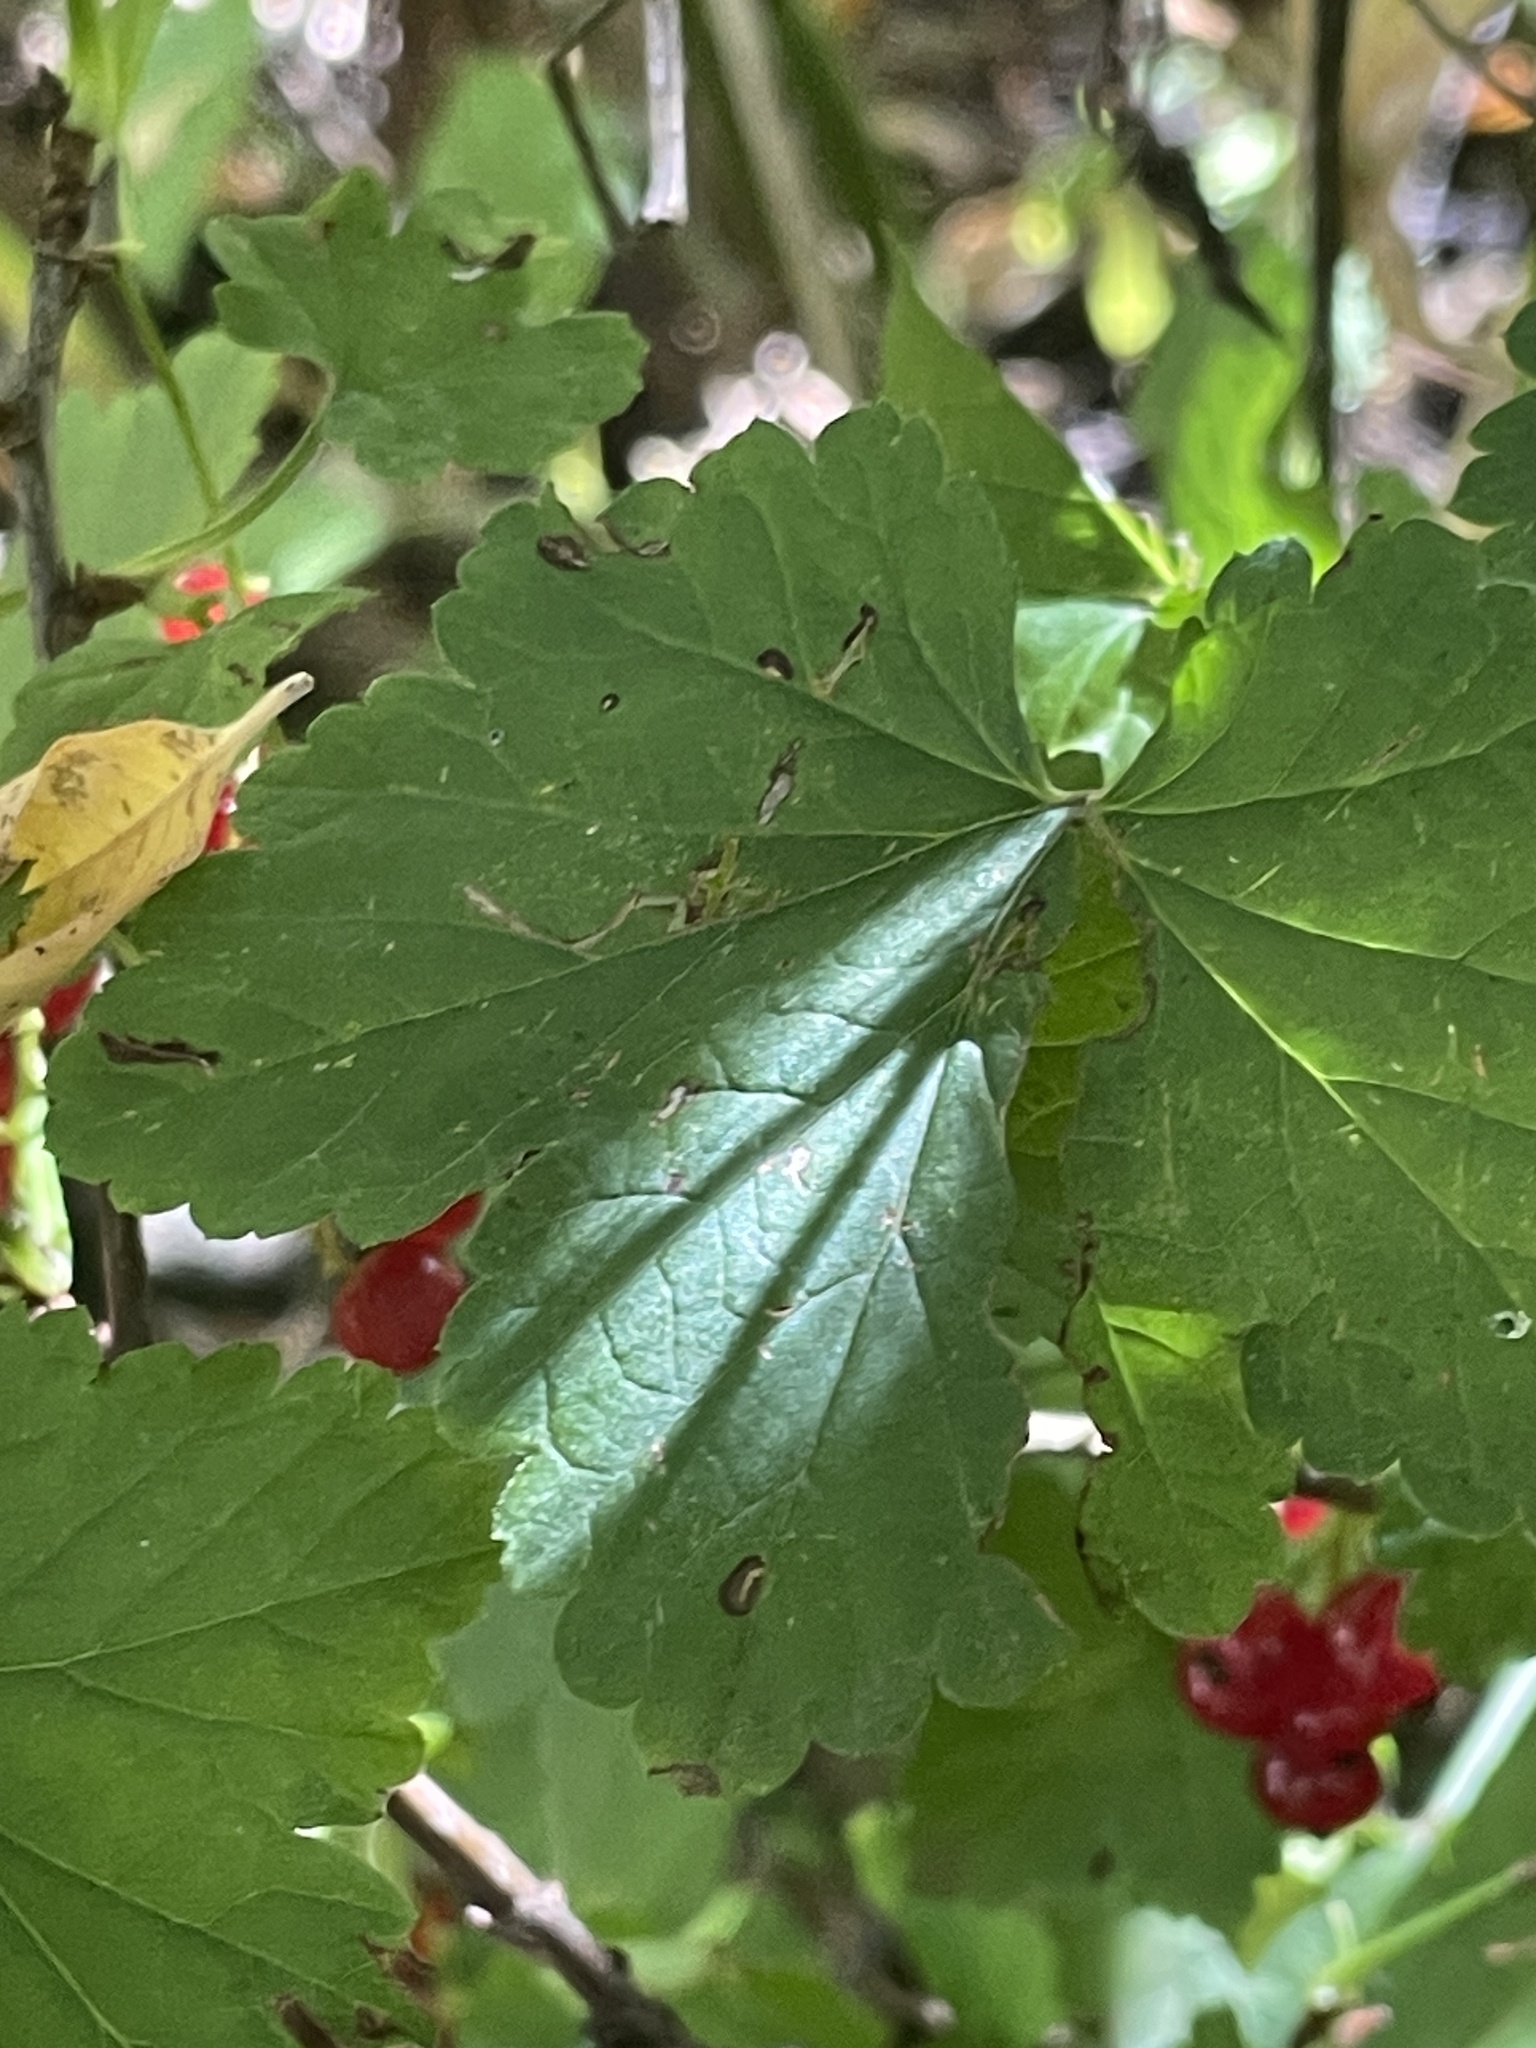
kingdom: Plantae
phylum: Tracheophyta
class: Magnoliopsida
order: Saxifragales
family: Grossulariaceae
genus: Ribes
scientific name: Ribes rubrum
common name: Red currant
